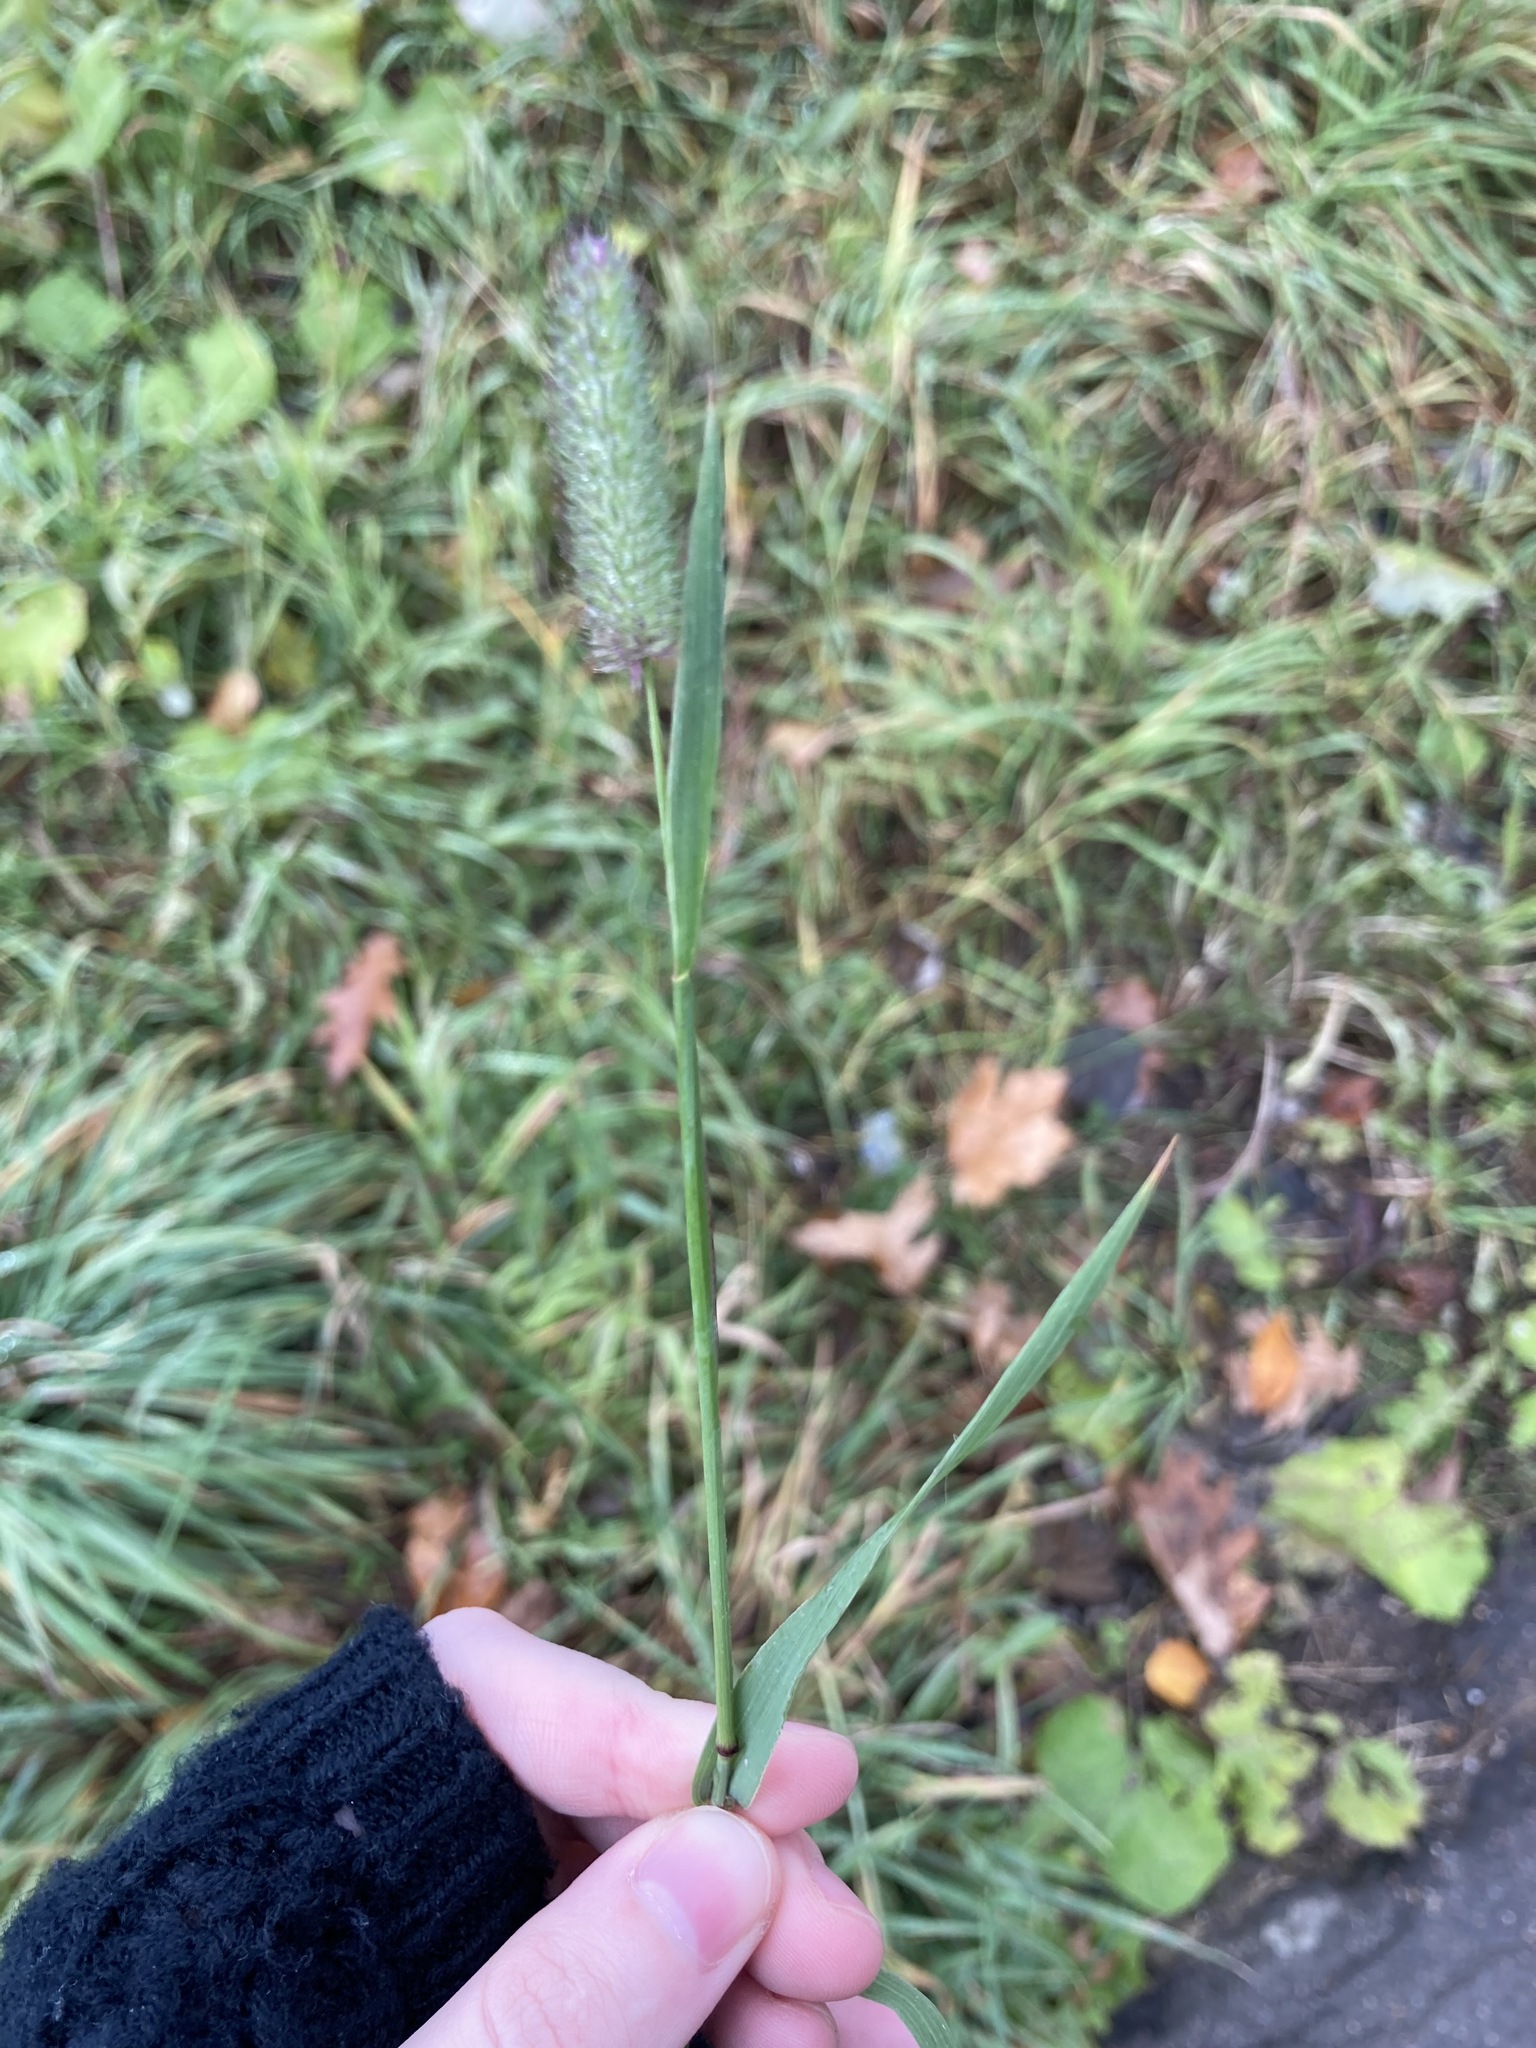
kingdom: Plantae
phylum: Tracheophyta
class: Liliopsida
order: Poales
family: Poaceae
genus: Phleum
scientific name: Phleum pratense
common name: Timothy grass
